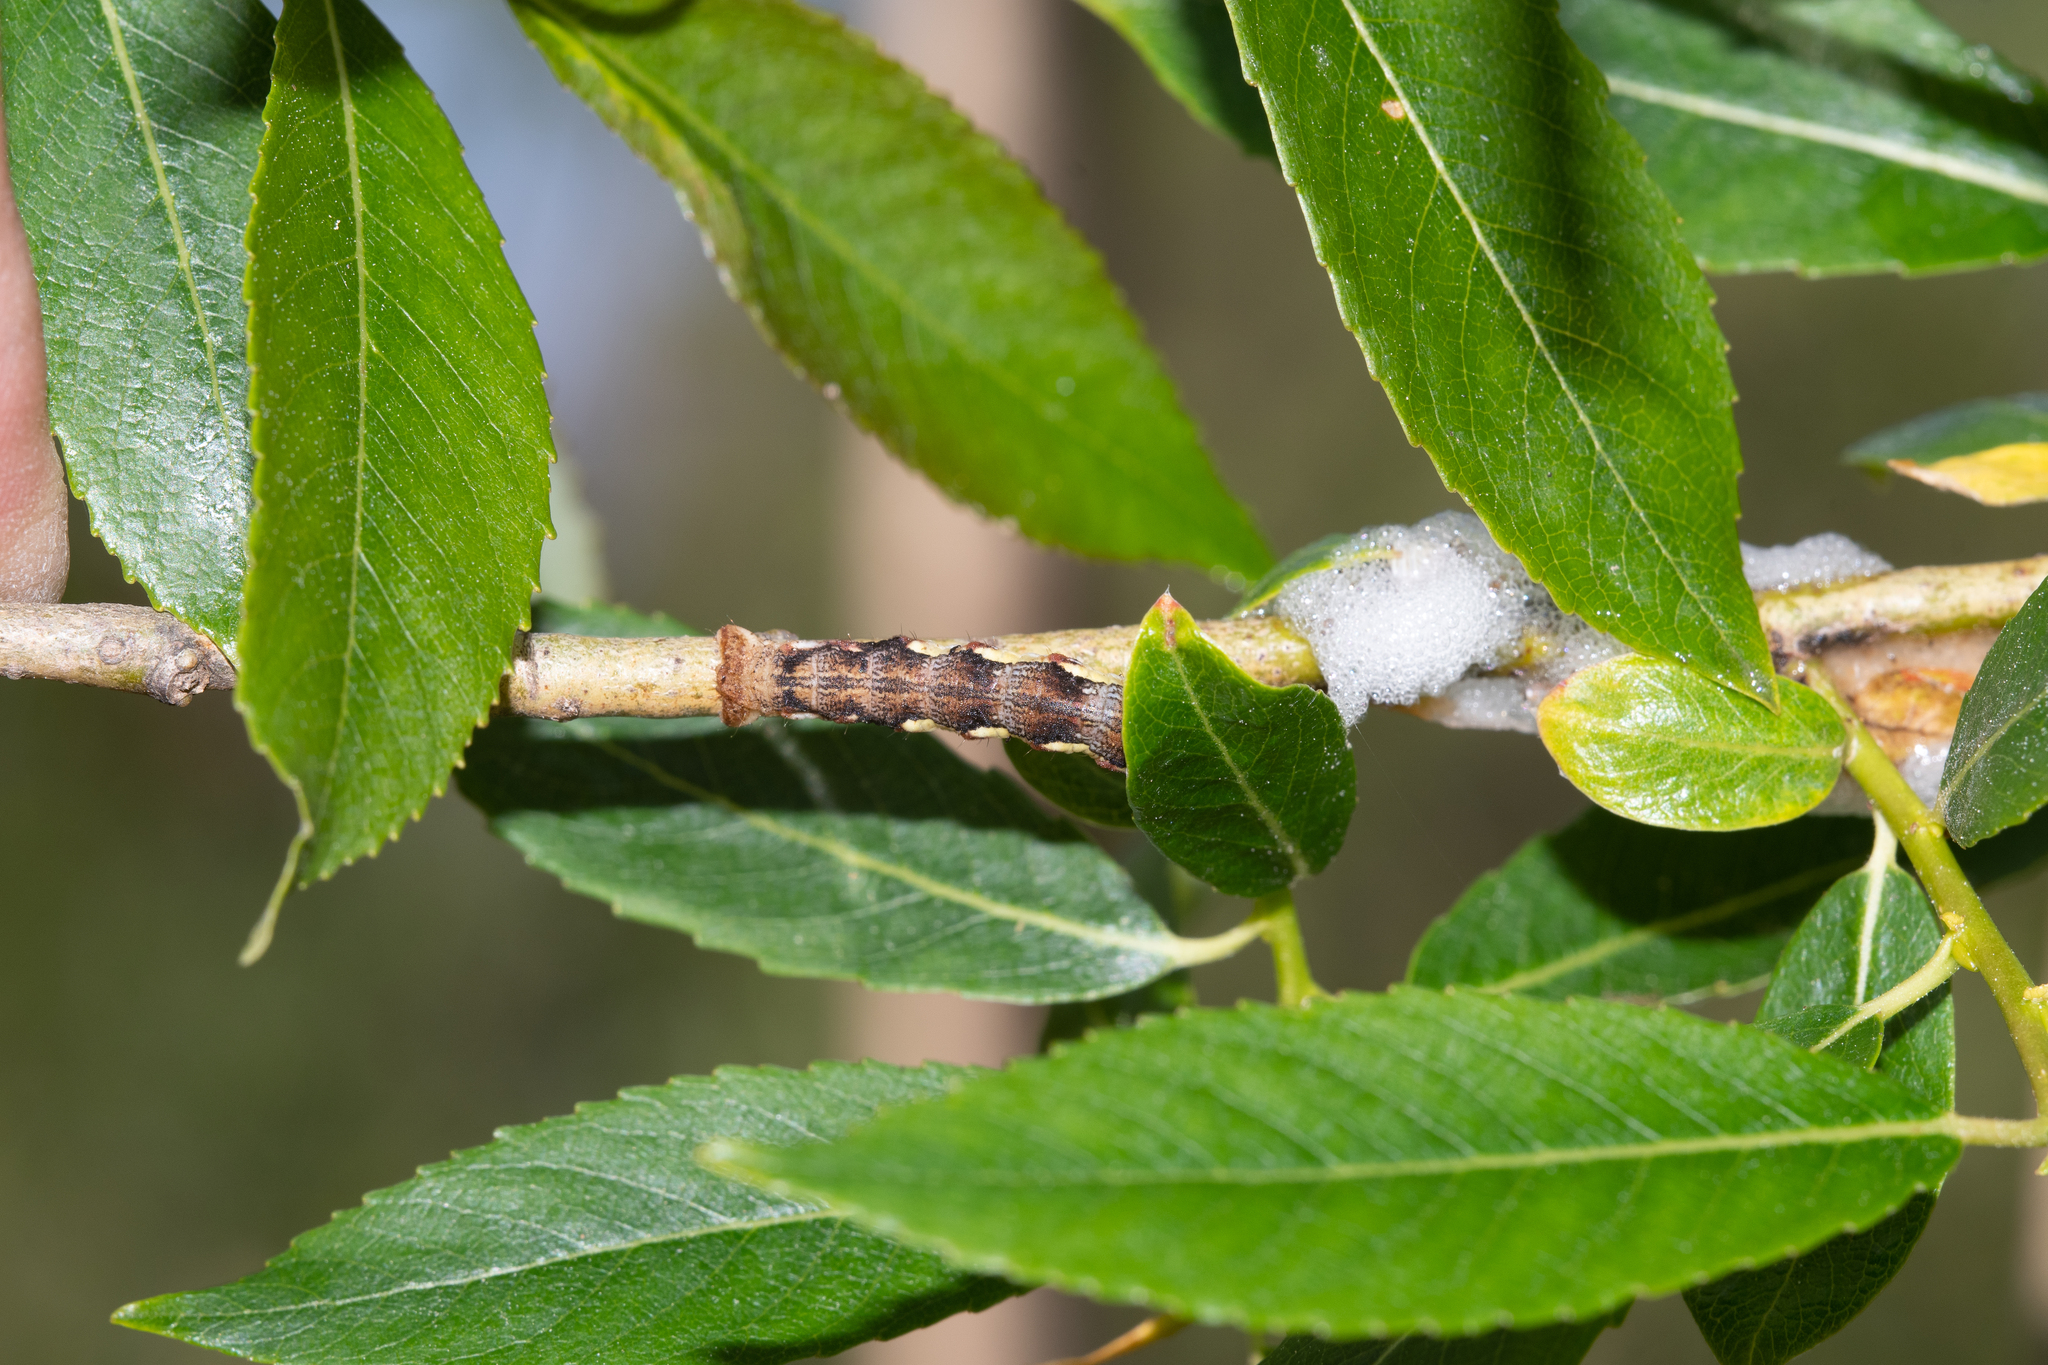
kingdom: Animalia
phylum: Arthropoda
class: Insecta
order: Lepidoptera
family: Geometridae
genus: Erannis
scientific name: Erannis defoliaria
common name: Mottled umber
